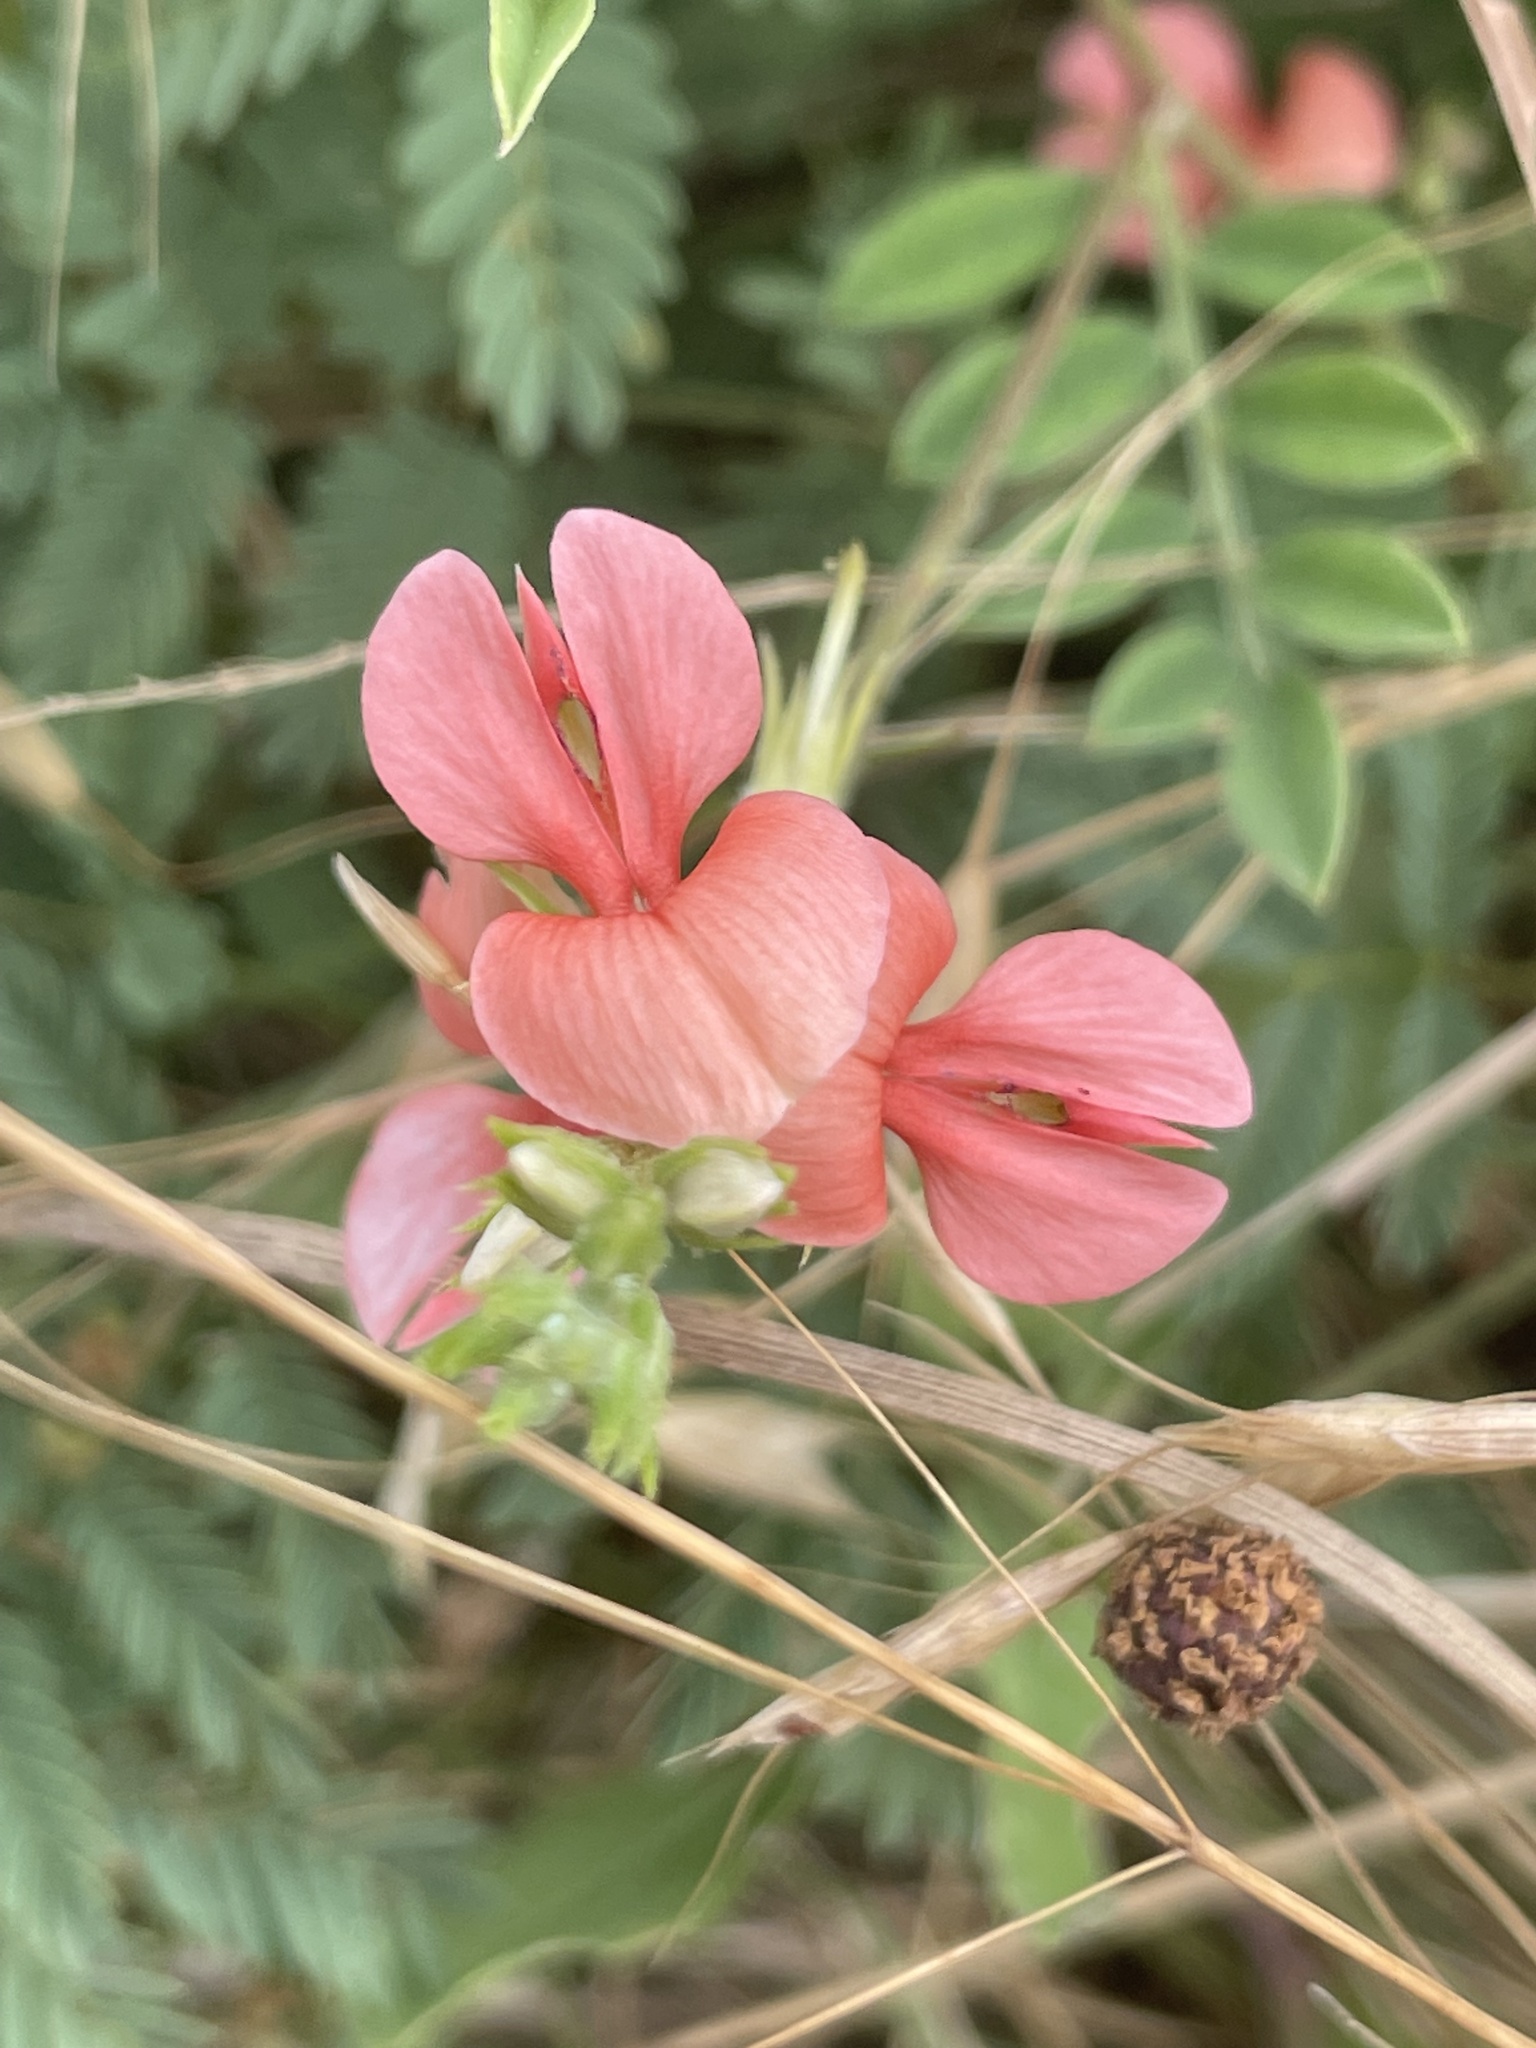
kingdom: Plantae
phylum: Tracheophyta
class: Magnoliopsida
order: Fabales
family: Fabaceae
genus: Indigofera
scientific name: Indigofera miniata
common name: Coast indigo
